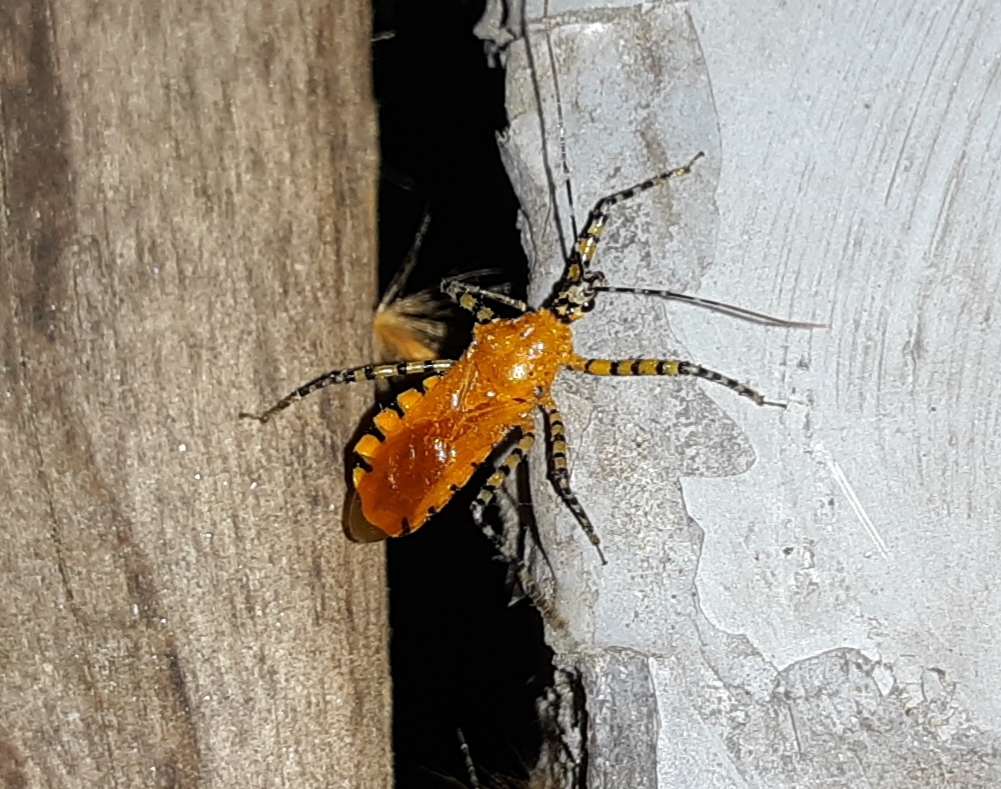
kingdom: Animalia
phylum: Arthropoda
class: Insecta
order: Hemiptera
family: Reduviidae
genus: Pselliopus
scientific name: Pselliopus barberi
